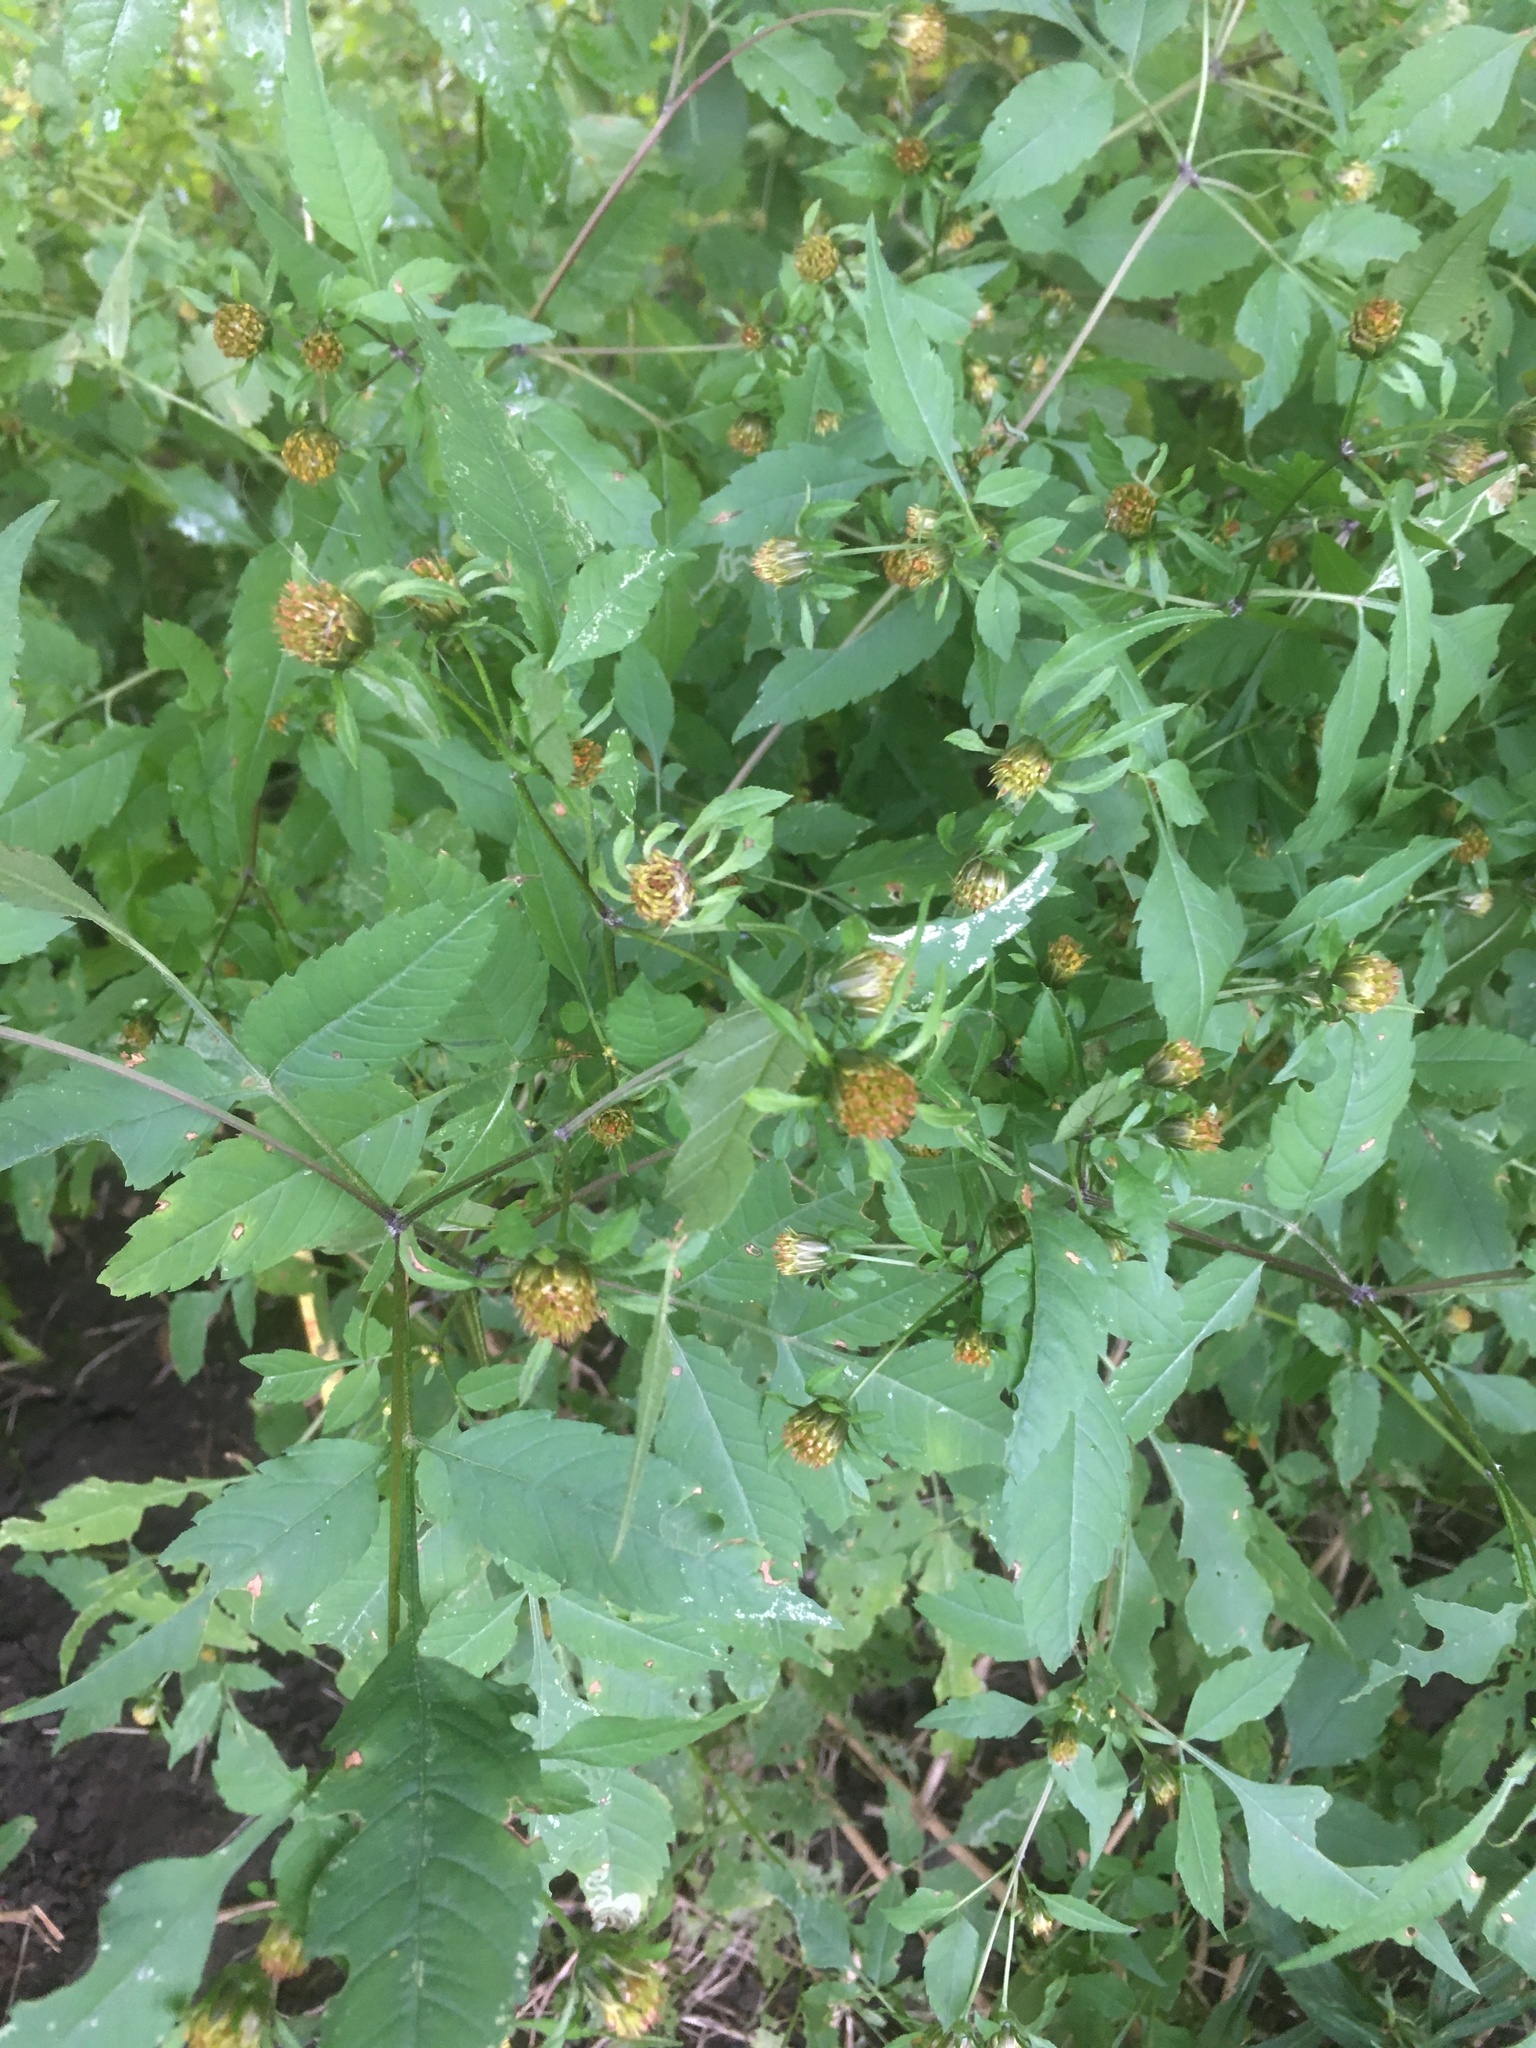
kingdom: Plantae
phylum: Tracheophyta
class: Magnoliopsida
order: Asterales
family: Asteraceae
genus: Bidens
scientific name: Bidens frondosa
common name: Beggarticks
